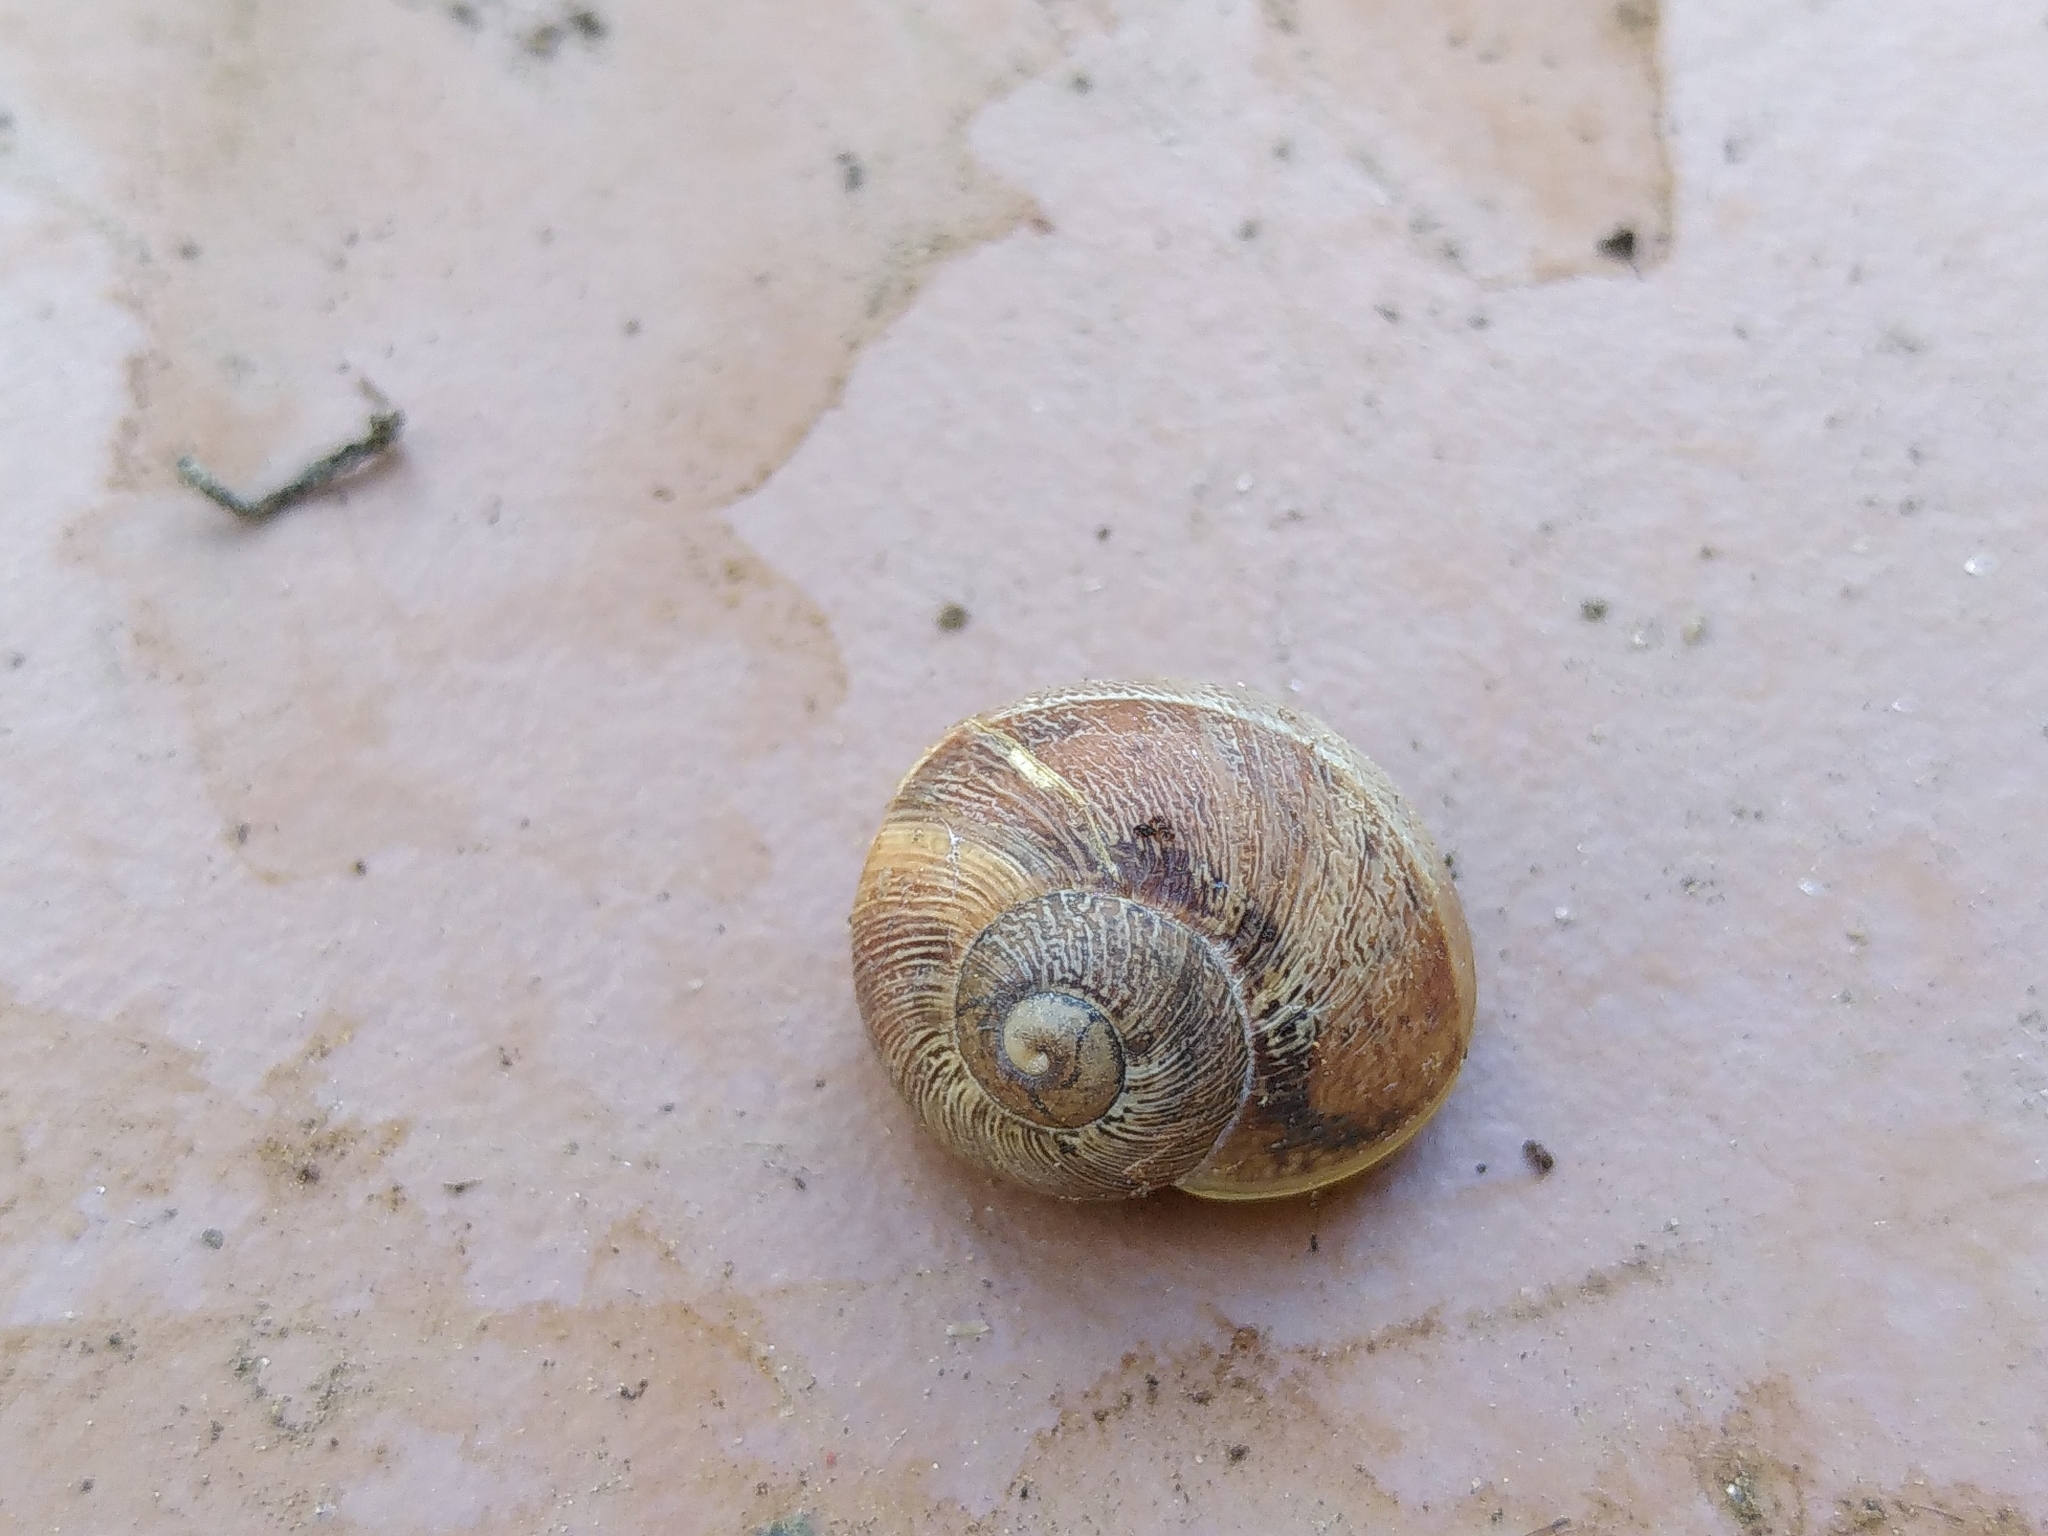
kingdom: Animalia
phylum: Mollusca
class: Gastropoda
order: Stylommatophora
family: Helicidae
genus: Cornu
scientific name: Cornu aspersum
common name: Brown garden snail
